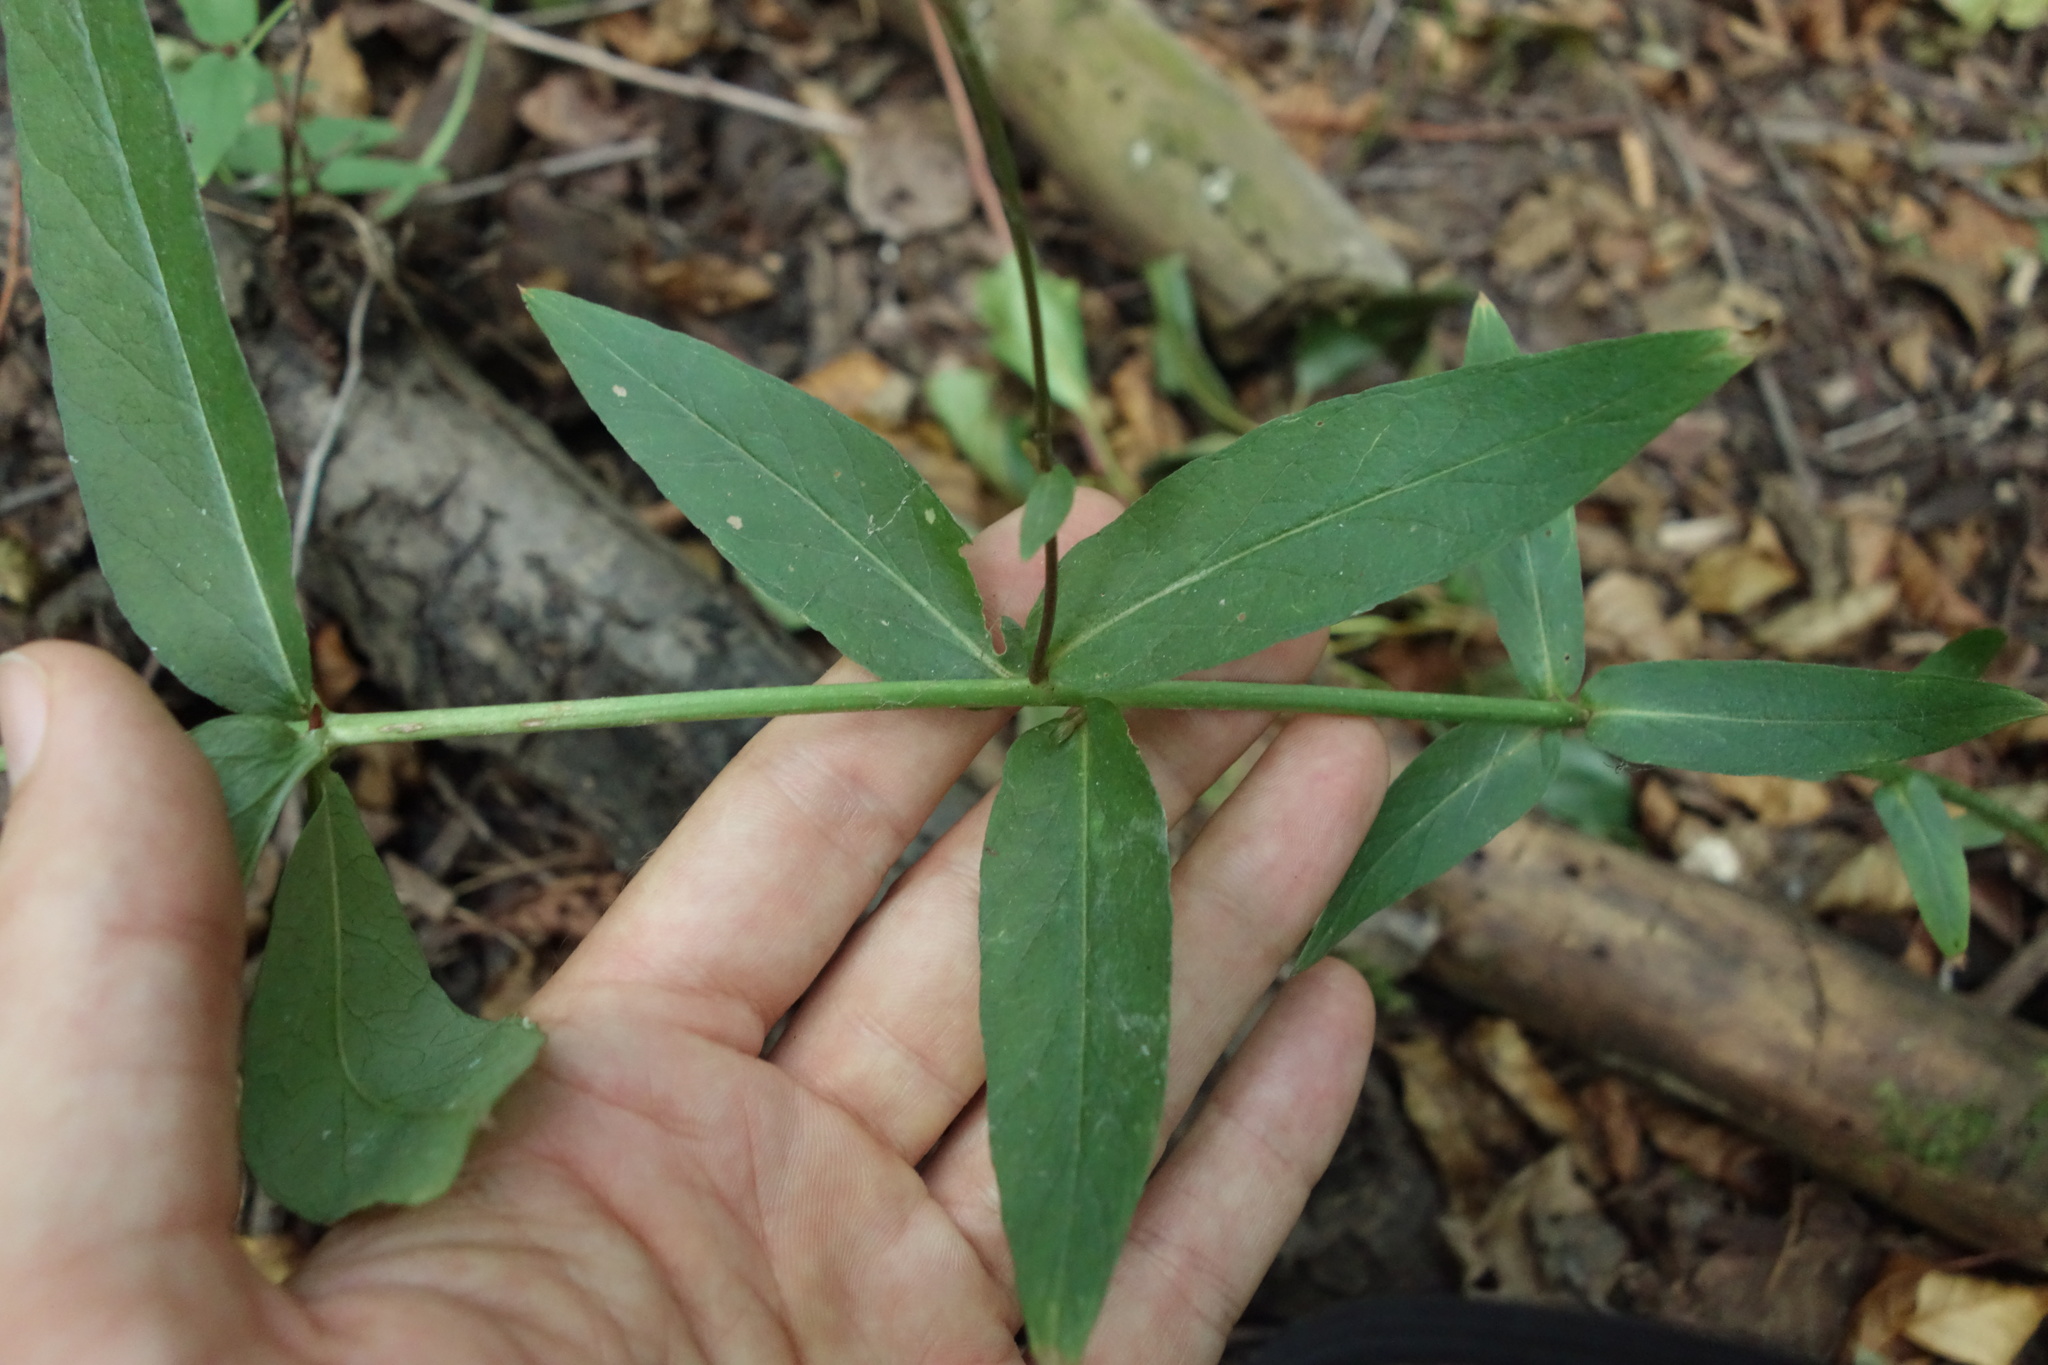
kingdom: Plantae
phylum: Tracheophyta
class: Magnoliopsida
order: Ericales
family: Primulaceae
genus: Lysimachia
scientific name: Lysimachia vulgaris
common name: Yellow loosestrife
